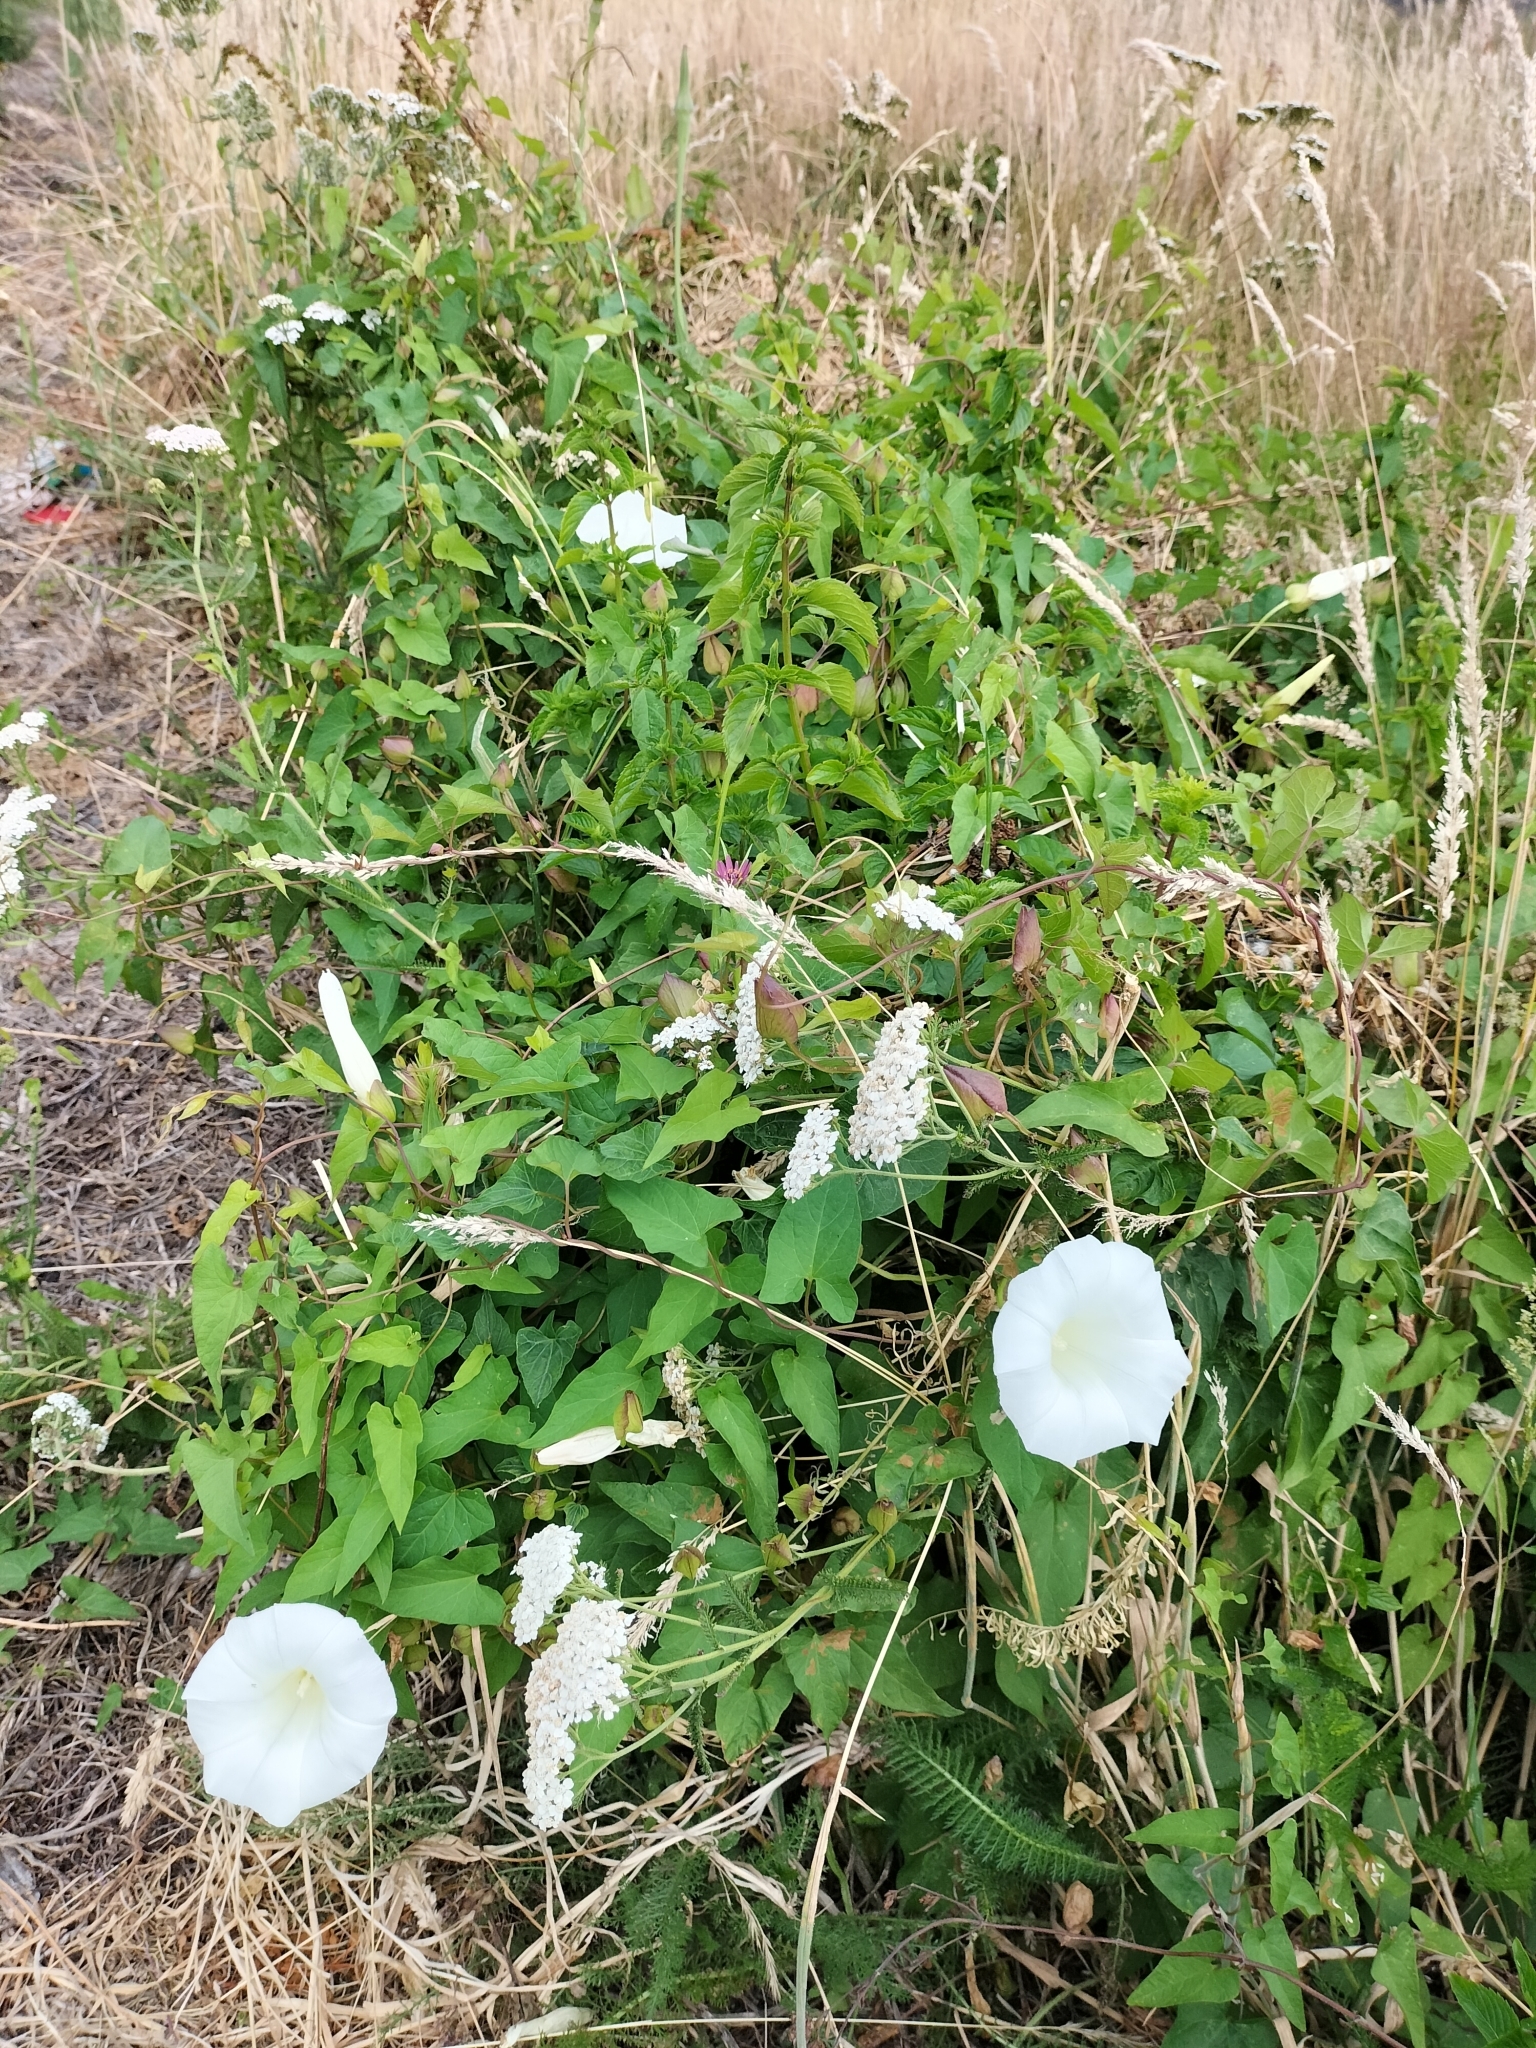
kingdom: Plantae
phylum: Tracheophyta
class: Magnoliopsida
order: Solanales
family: Convolvulaceae
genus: Calystegia
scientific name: Calystegia silvatica
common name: Large bindweed
